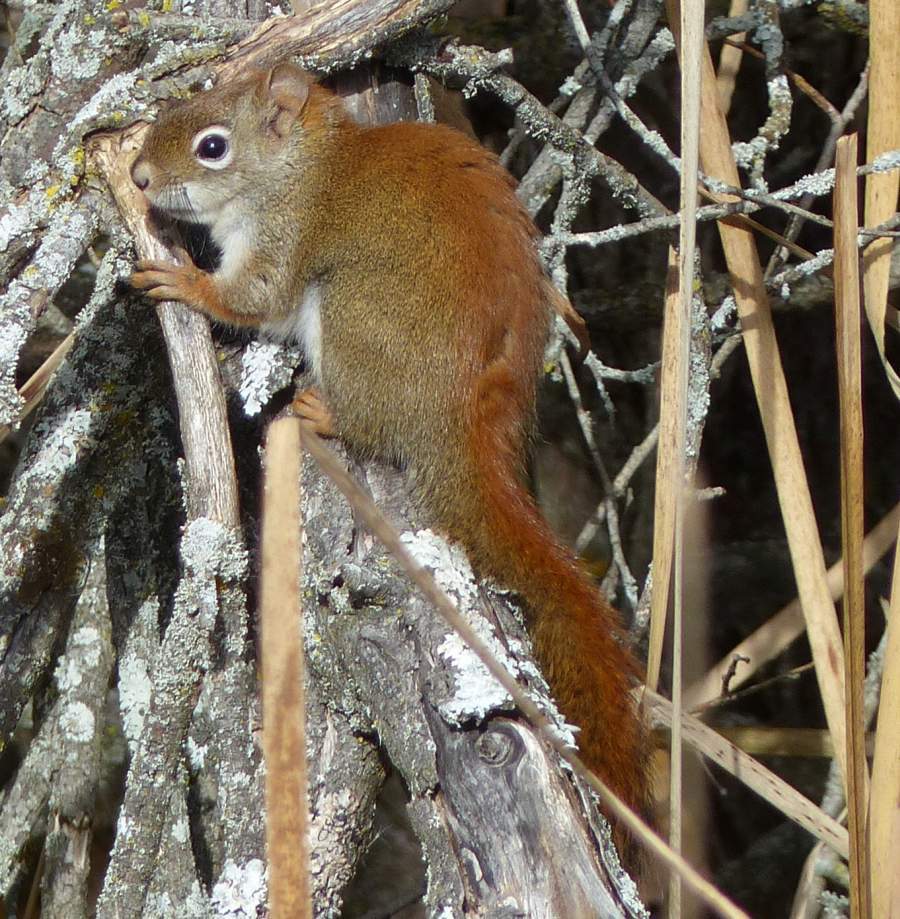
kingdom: Animalia
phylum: Chordata
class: Mammalia
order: Rodentia
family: Sciuridae
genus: Tamiasciurus
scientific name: Tamiasciurus hudsonicus
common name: Red squirrel
